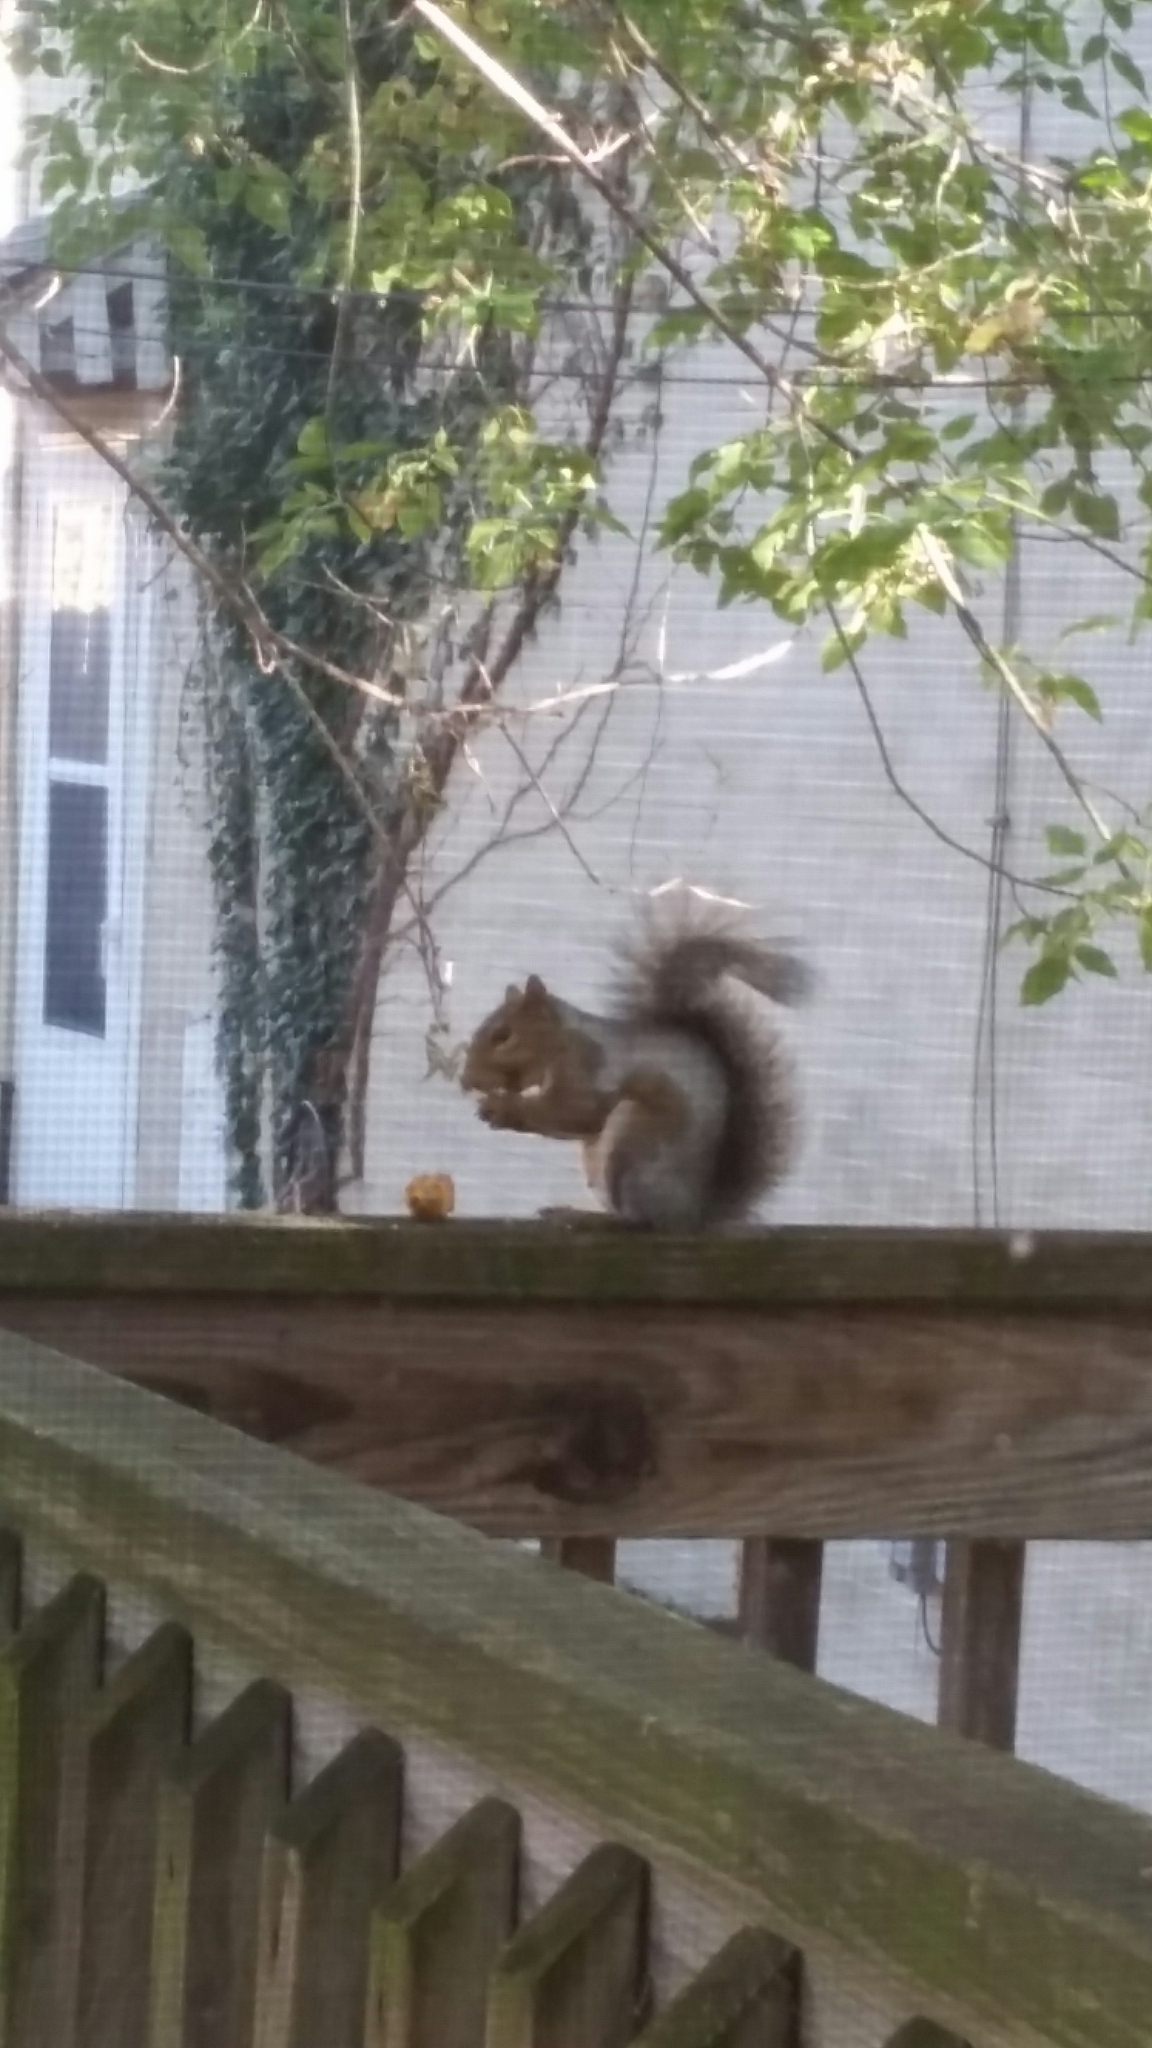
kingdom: Animalia
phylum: Chordata
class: Mammalia
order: Rodentia
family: Sciuridae
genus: Sciurus
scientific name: Sciurus carolinensis
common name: Eastern gray squirrel
